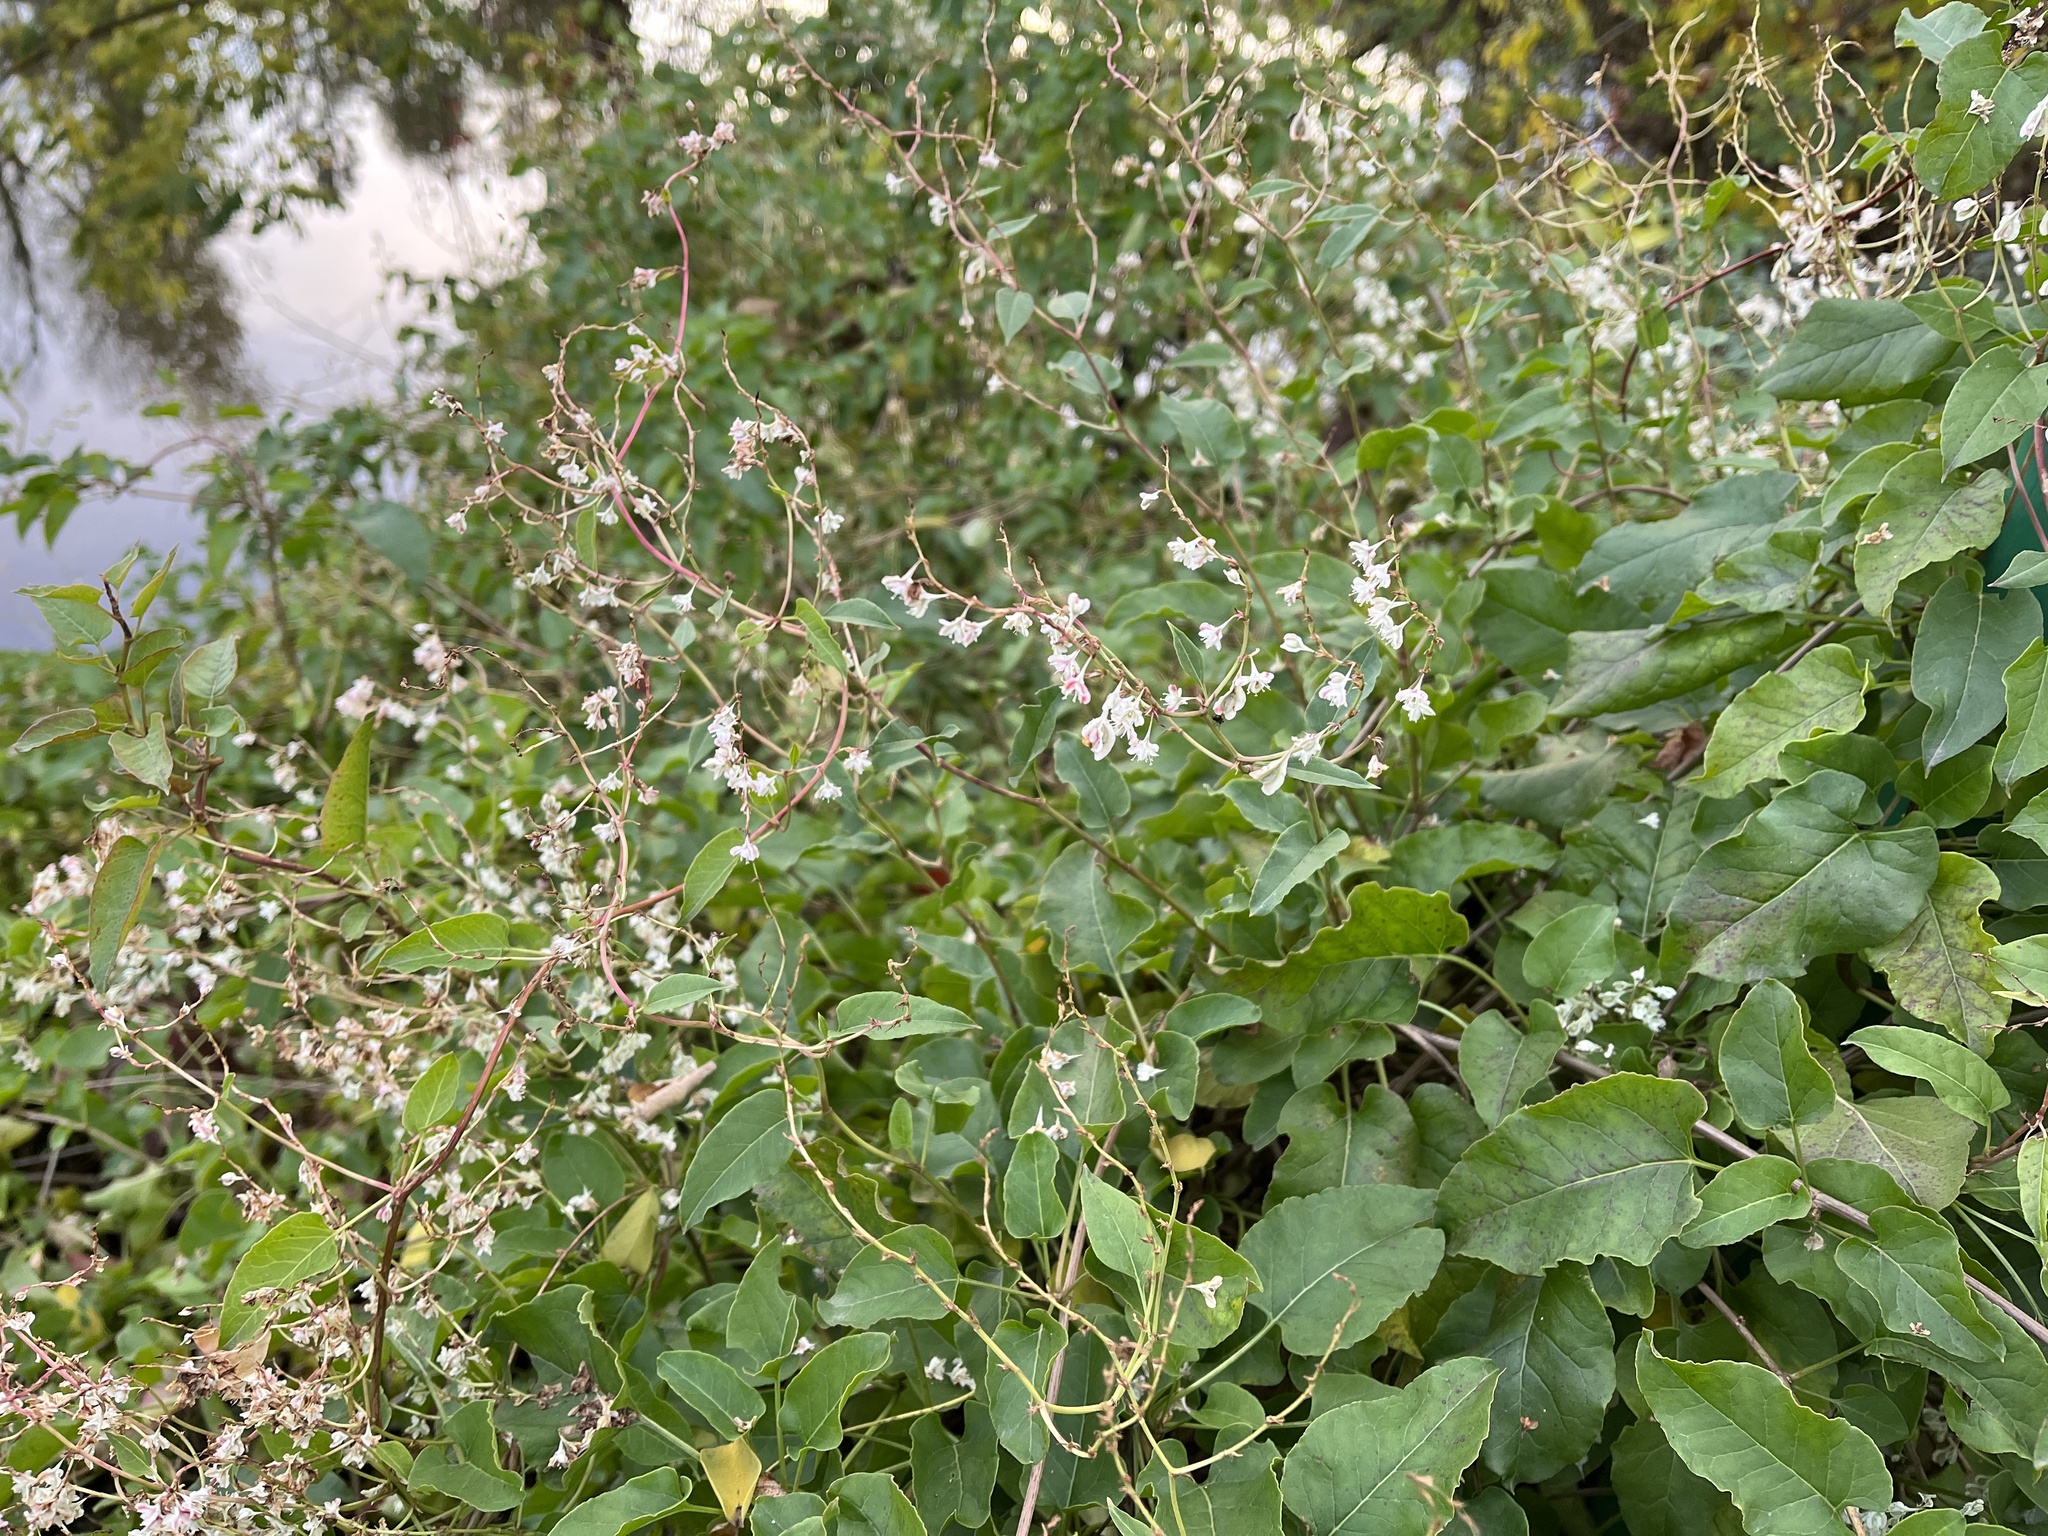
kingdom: Plantae
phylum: Tracheophyta
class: Magnoliopsida
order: Caryophyllales
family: Polygonaceae
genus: Fallopia
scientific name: Fallopia baldschuanica
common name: Russian-vine
